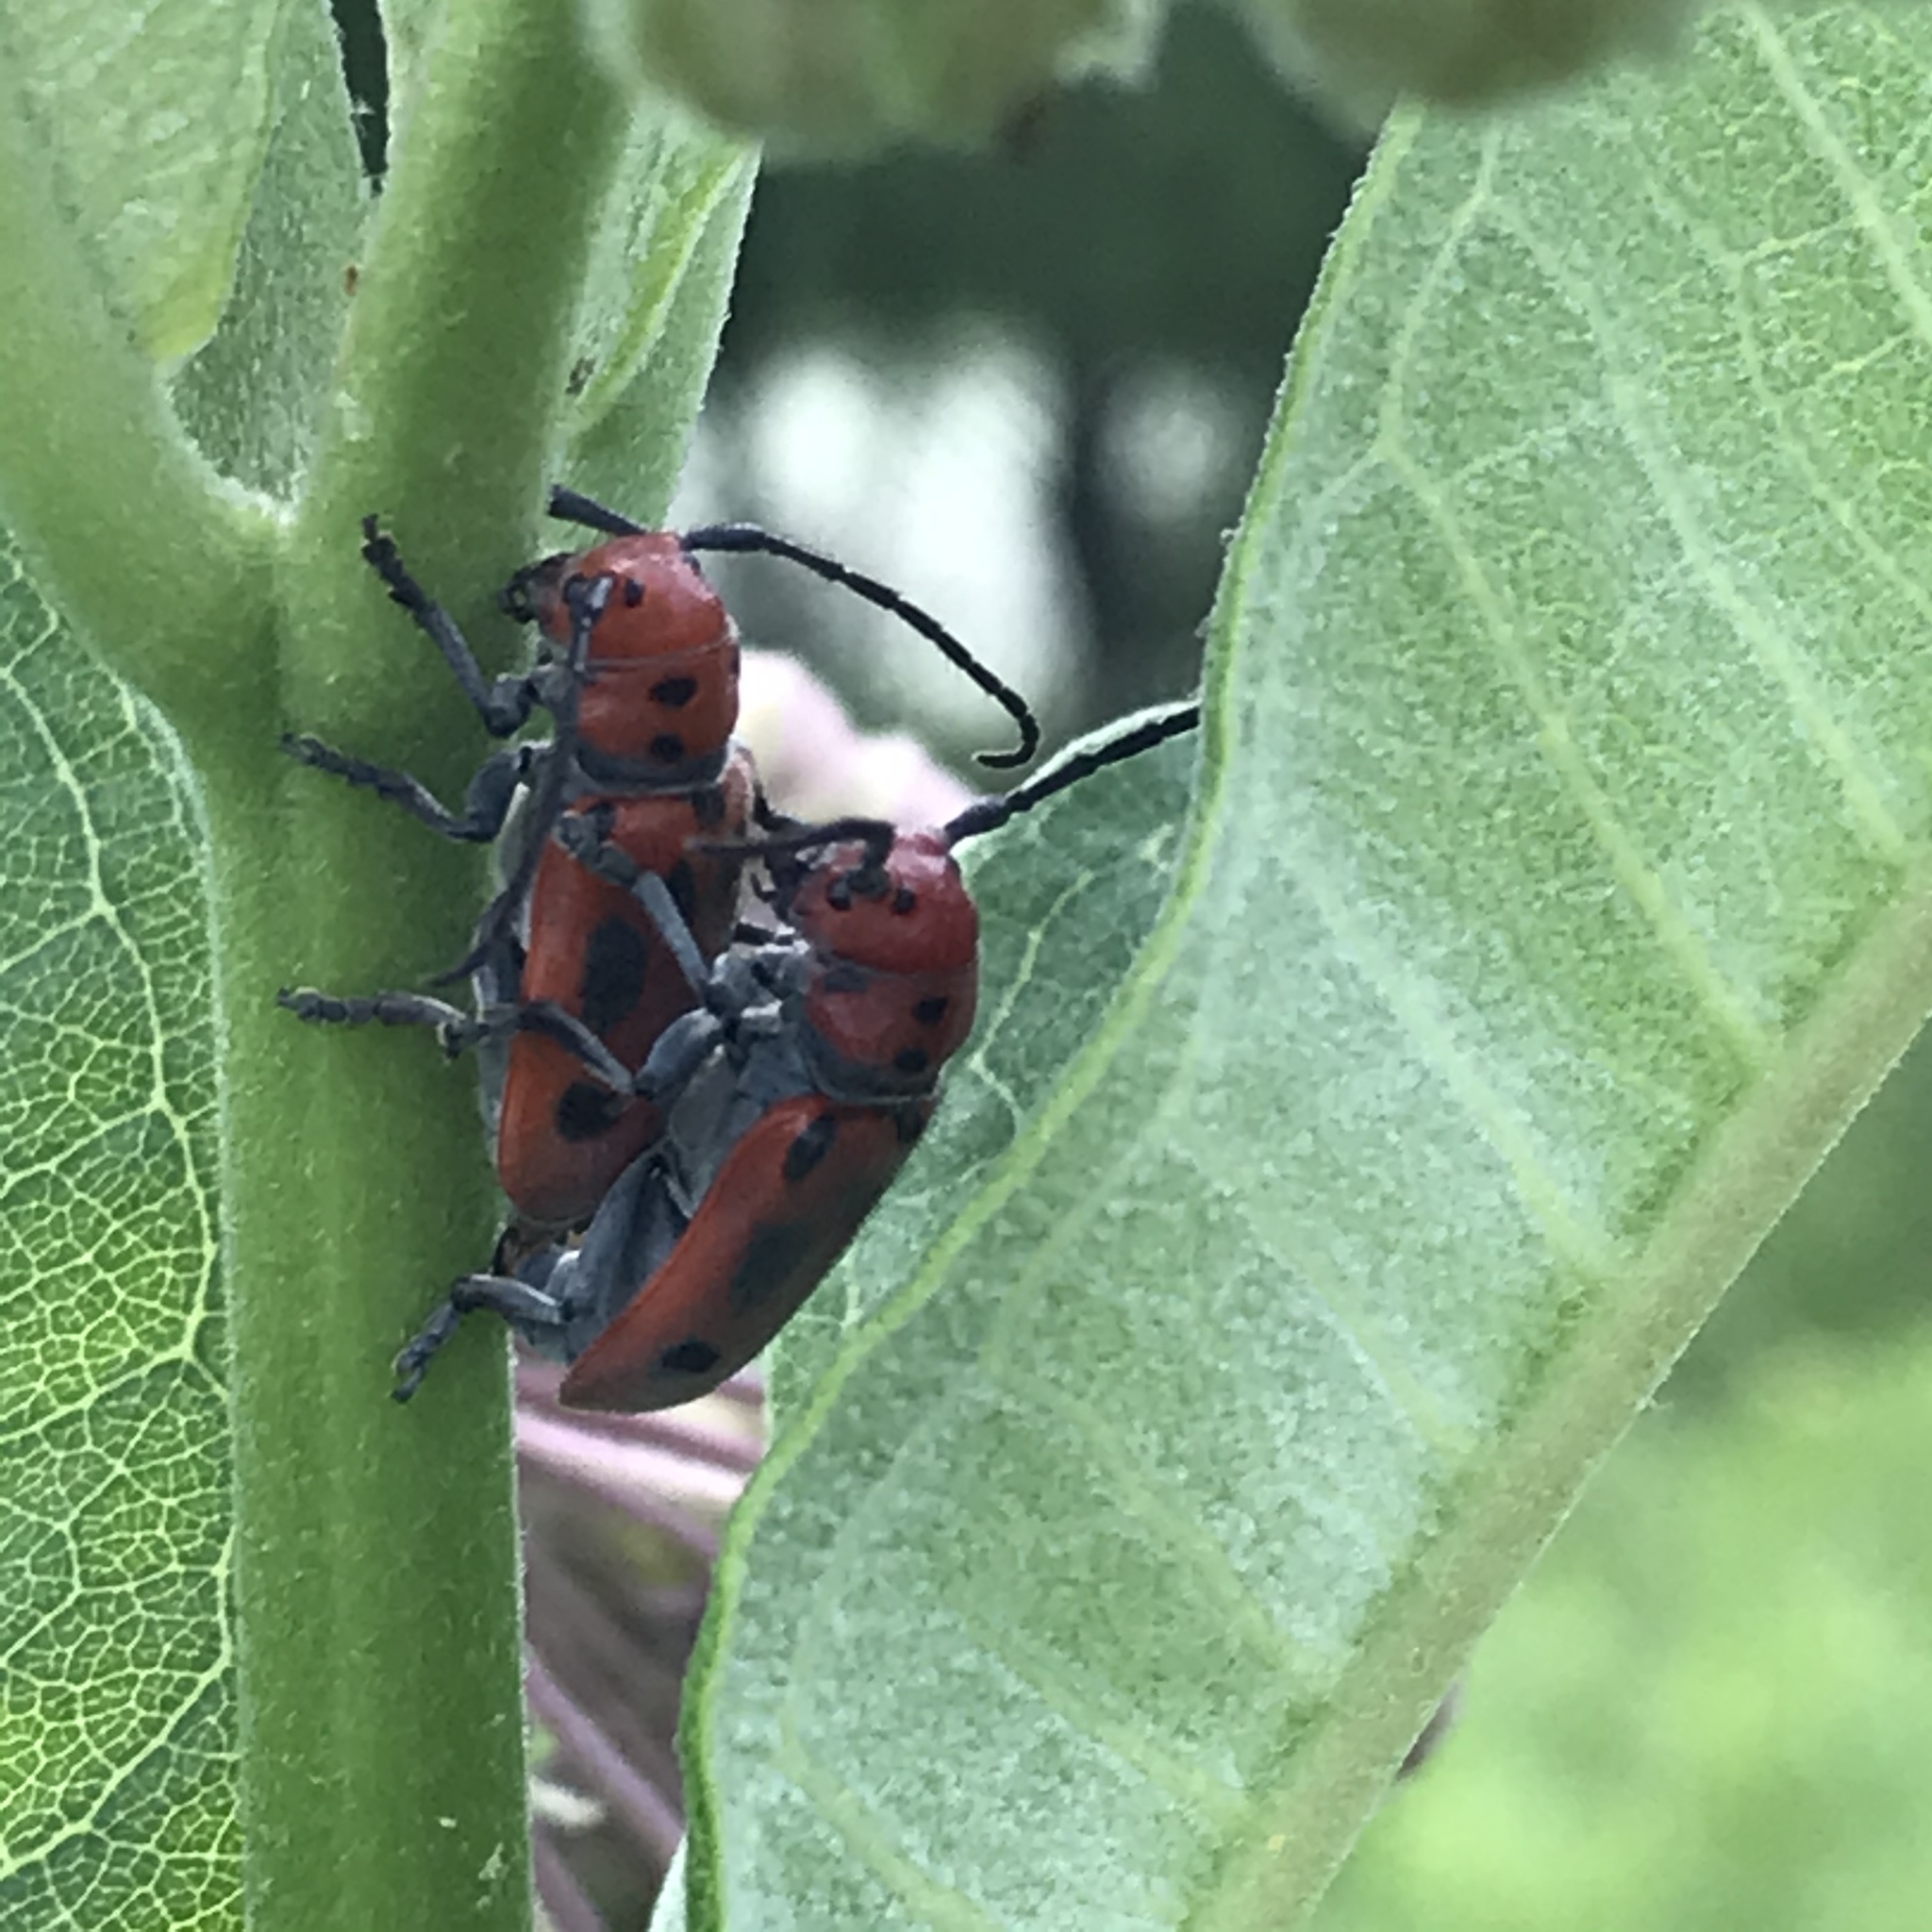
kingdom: Animalia
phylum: Arthropoda
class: Insecta
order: Coleoptera
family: Cerambycidae
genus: Tetraopes
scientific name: Tetraopes tetrophthalmus
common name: Red milkweed beetle
